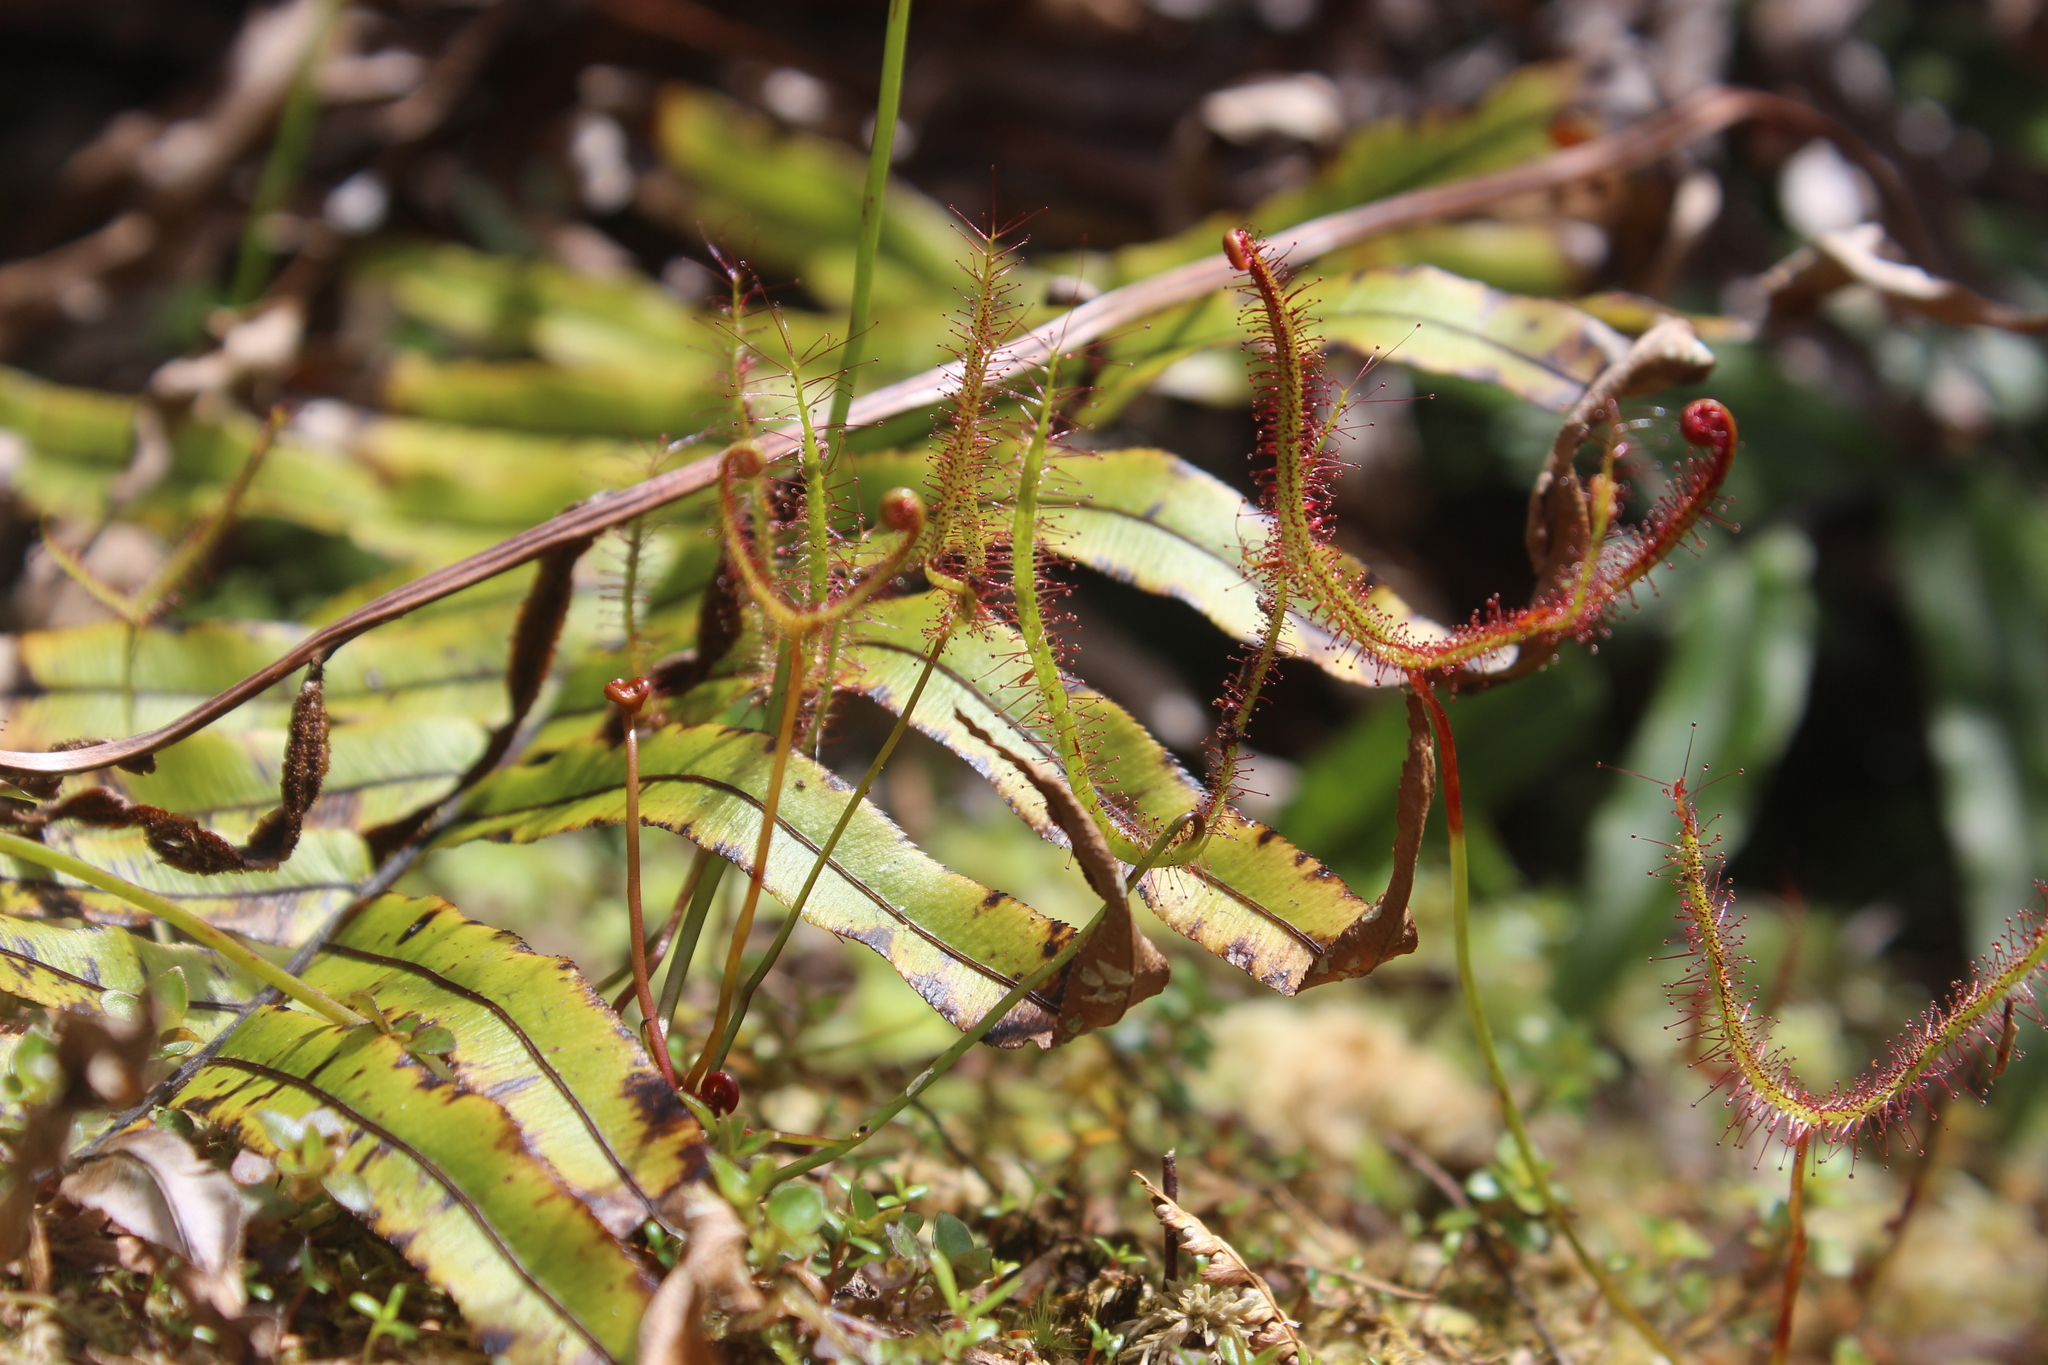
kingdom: Plantae
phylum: Tracheophyta
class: Magnoliopsida
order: Caryophyllales
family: Droseraceae
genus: Drosera
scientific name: Drosera binata
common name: Forked sundew
